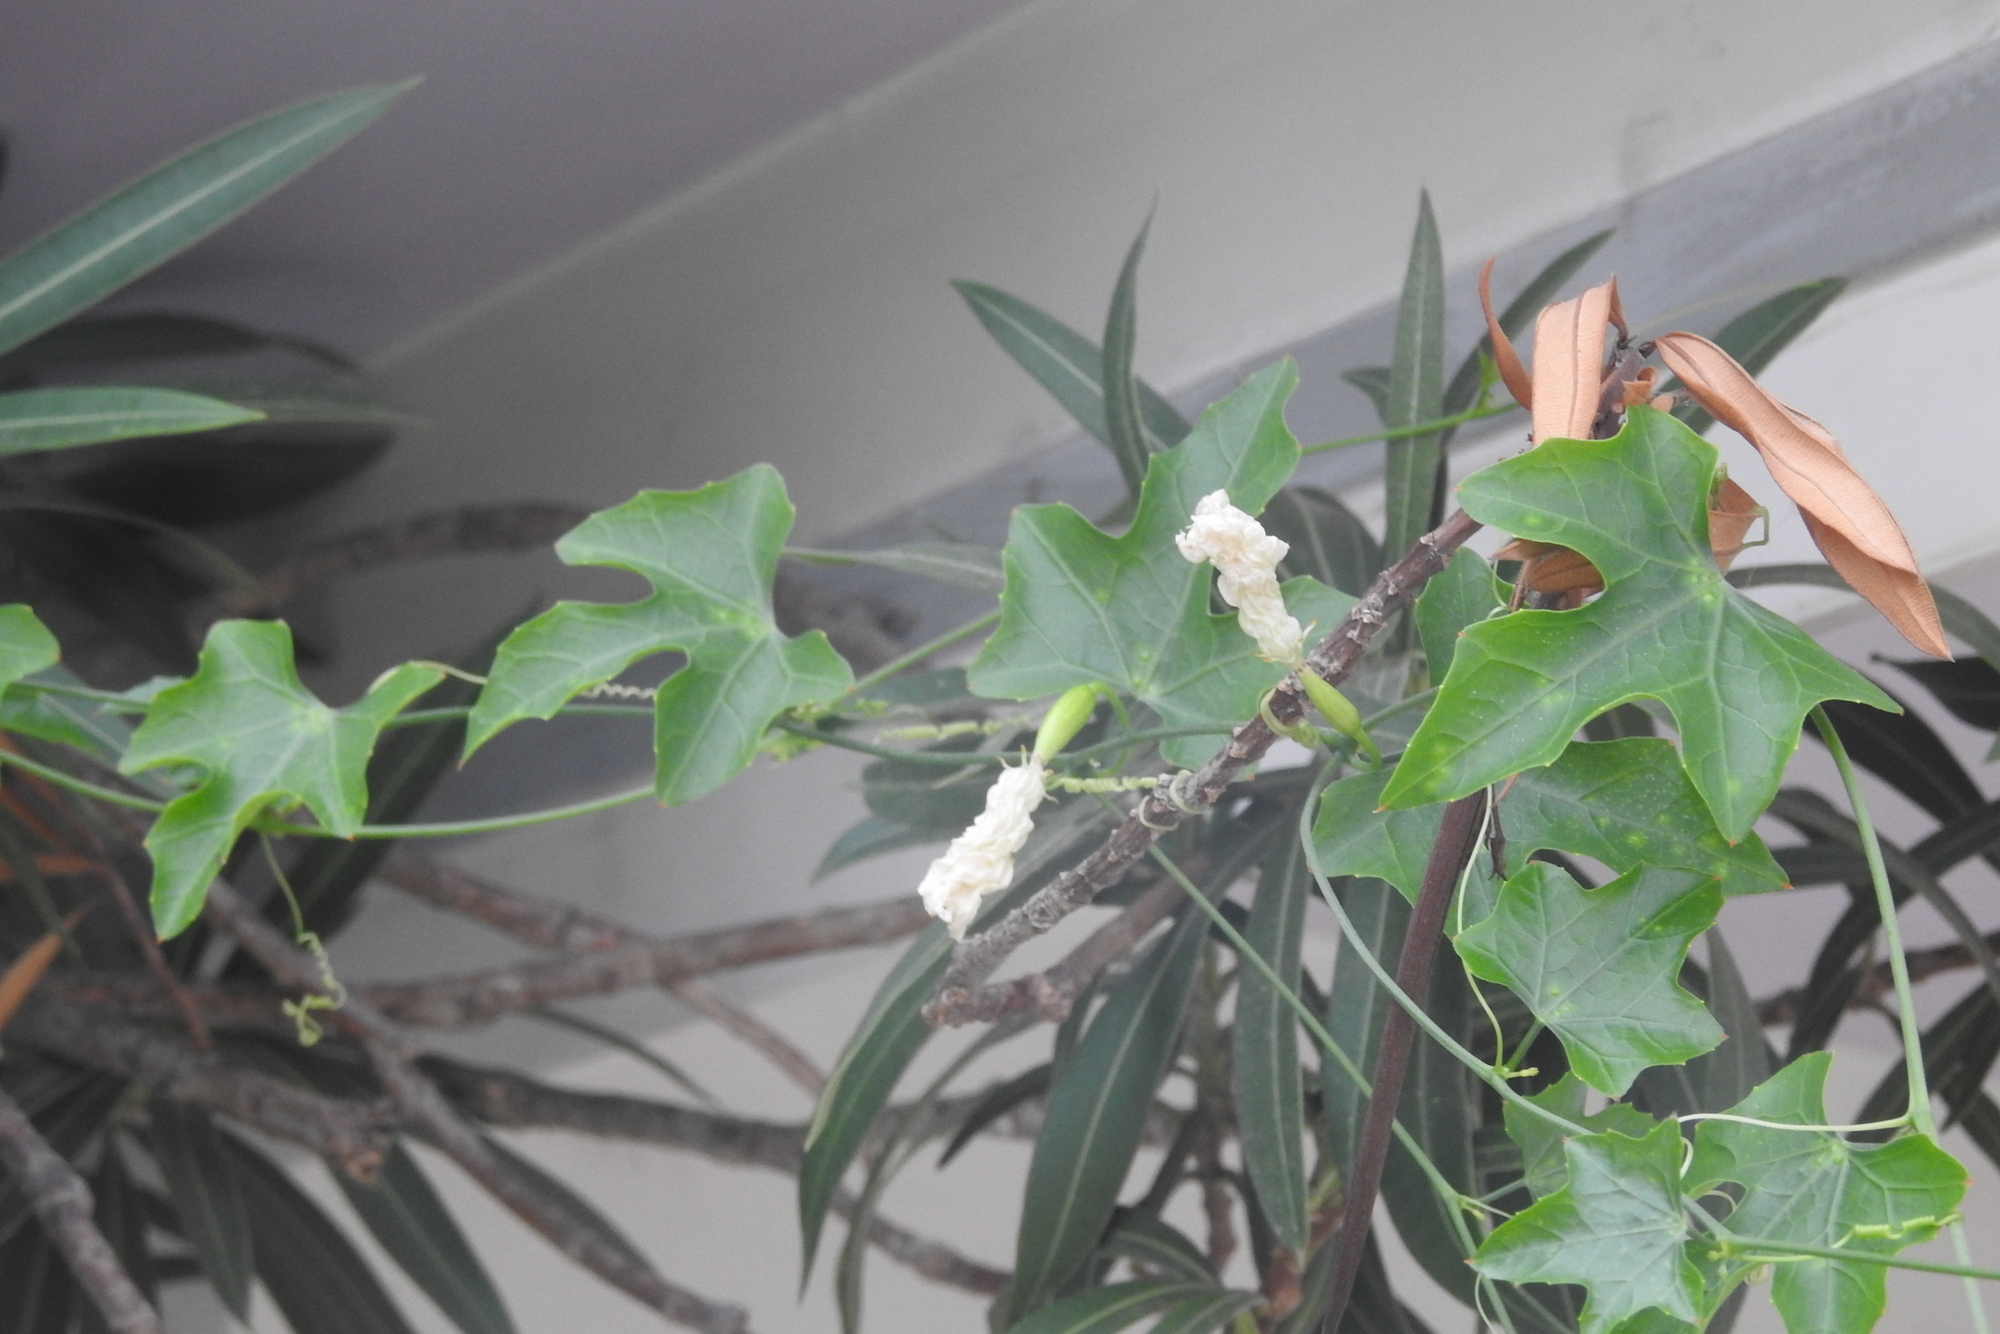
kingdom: Plantae
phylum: Tracheophyta
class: Magnoliopsida
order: Cucurbitales
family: Cucurbitaceae
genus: Coccinia
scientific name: Coccinia grandis
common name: Ivy gourd
